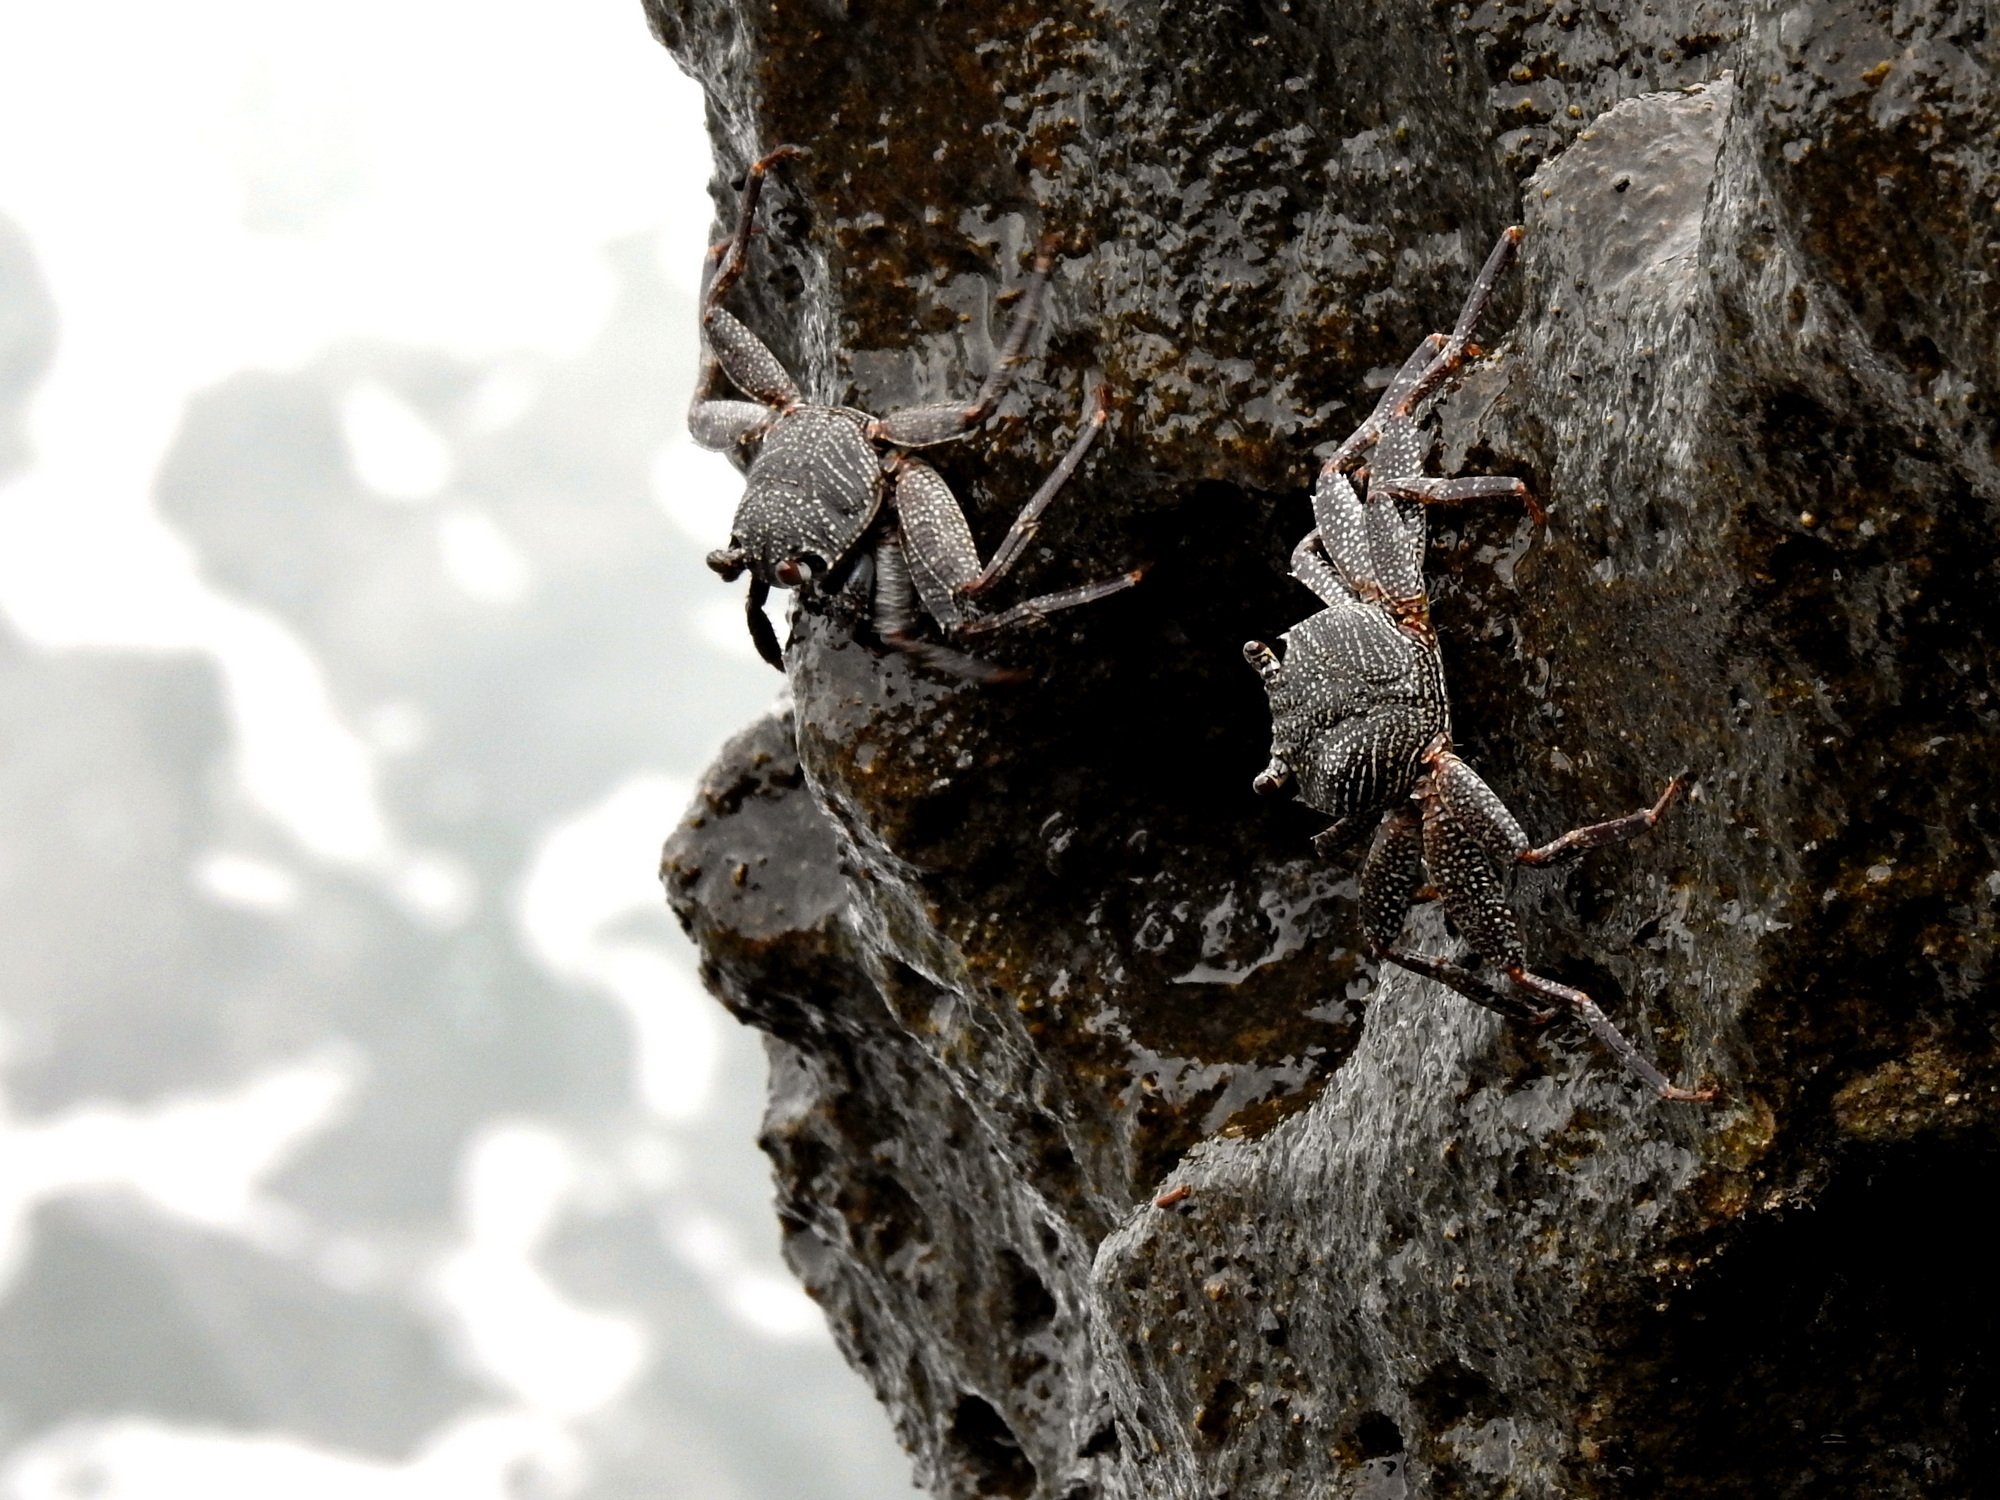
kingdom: Animalia
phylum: Arthropoda
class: Malacostraca
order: Decapoda
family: Grapsidae
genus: Grapsus
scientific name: Grapsus albolineatus
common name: Mottled lightfoot crab
